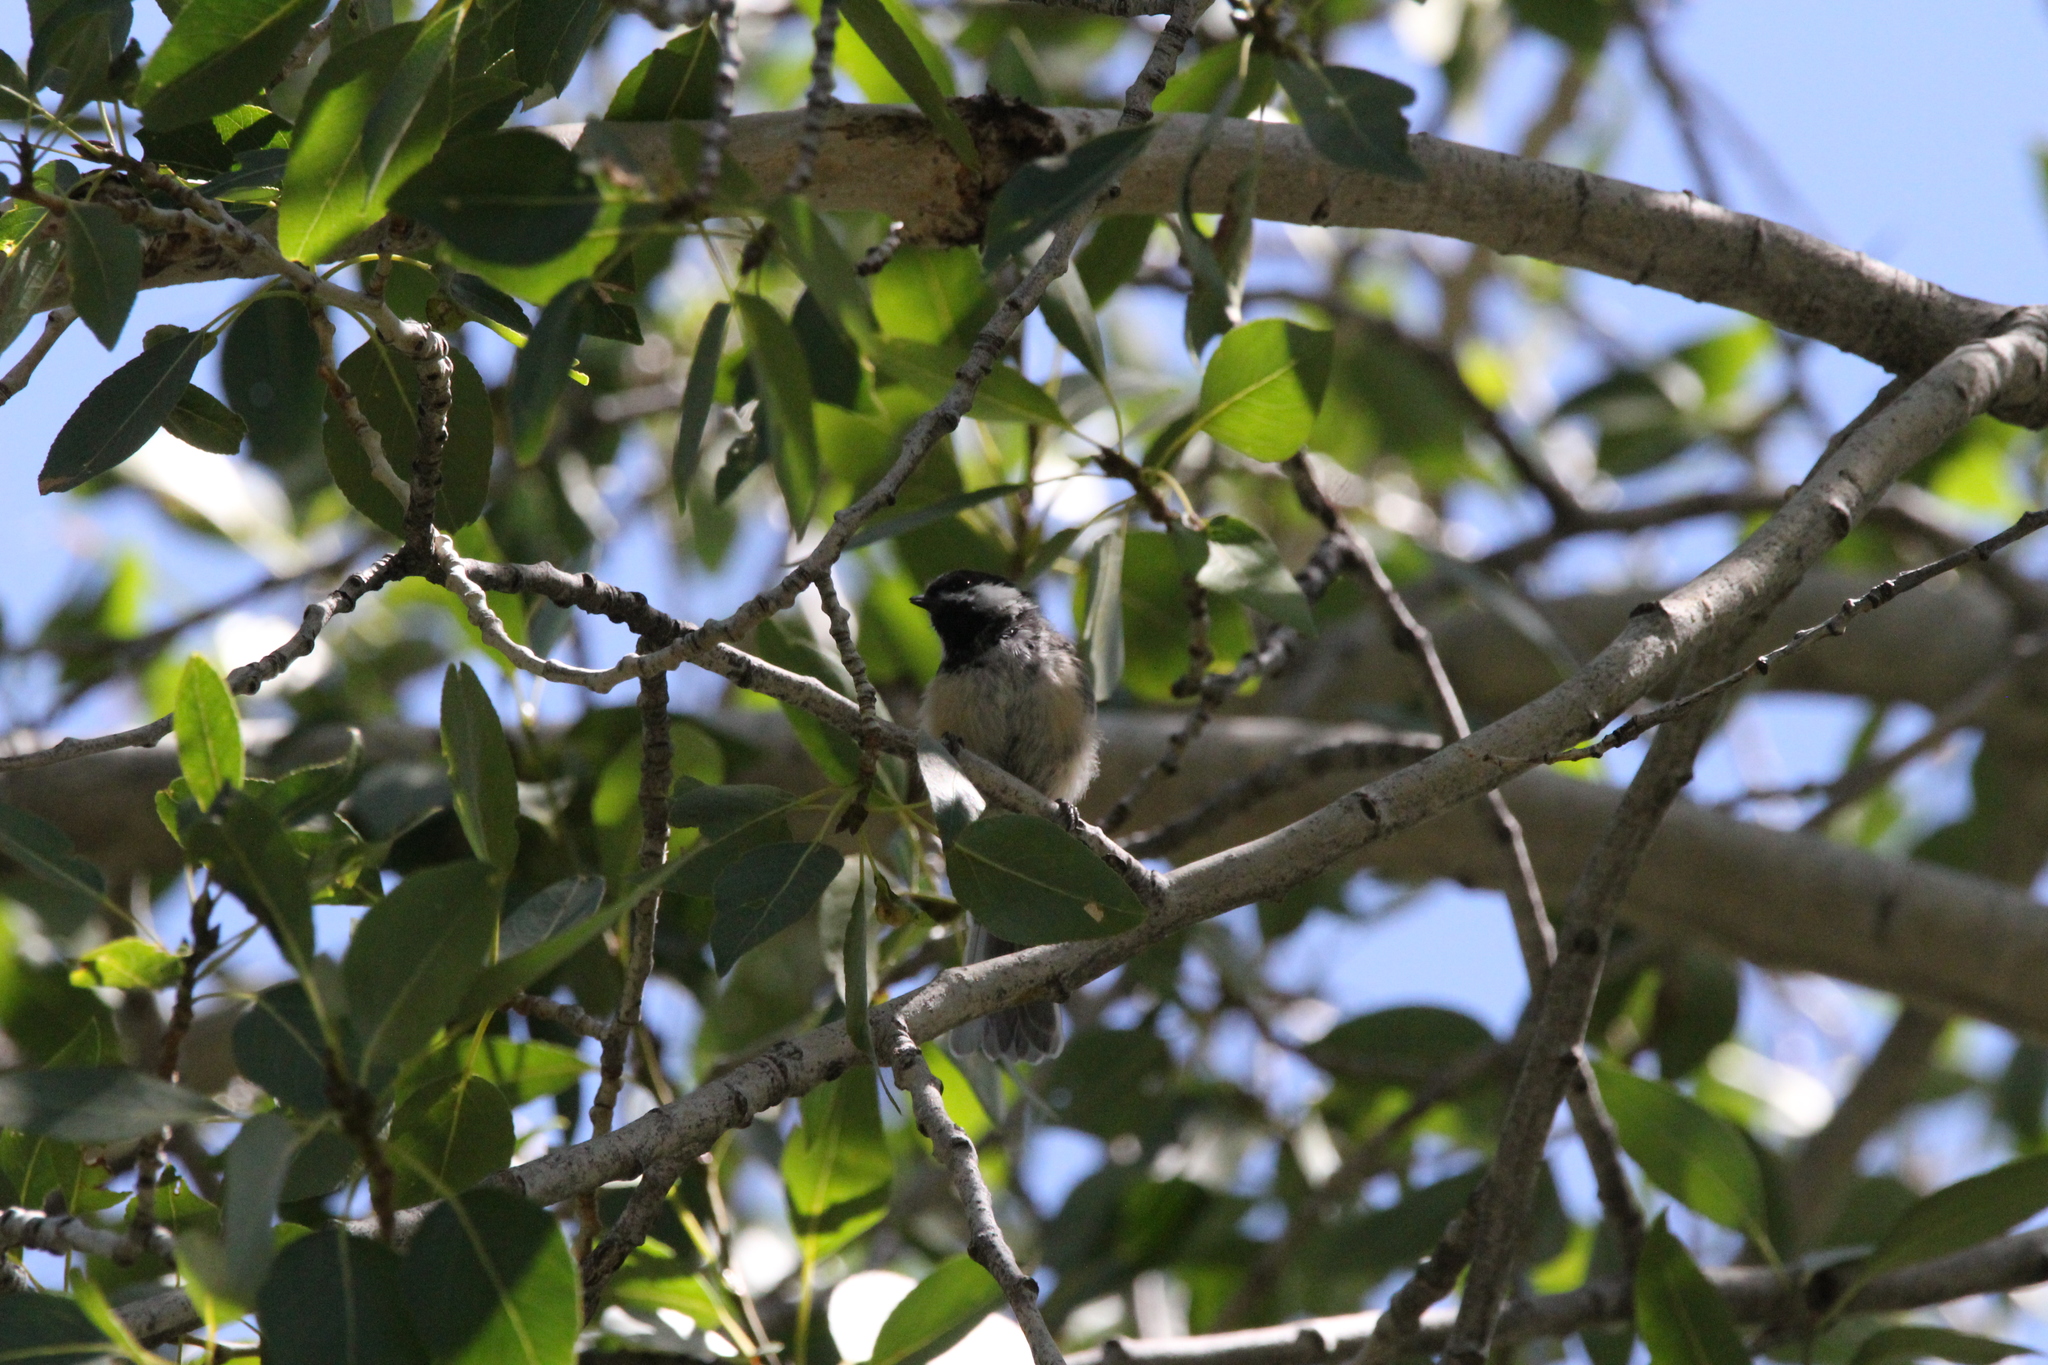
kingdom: Animalia
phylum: Chordata
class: Aves
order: Passeriformes
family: Paridae
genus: Poecile
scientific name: Poecile atricapillus
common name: Black-capped chickadee
